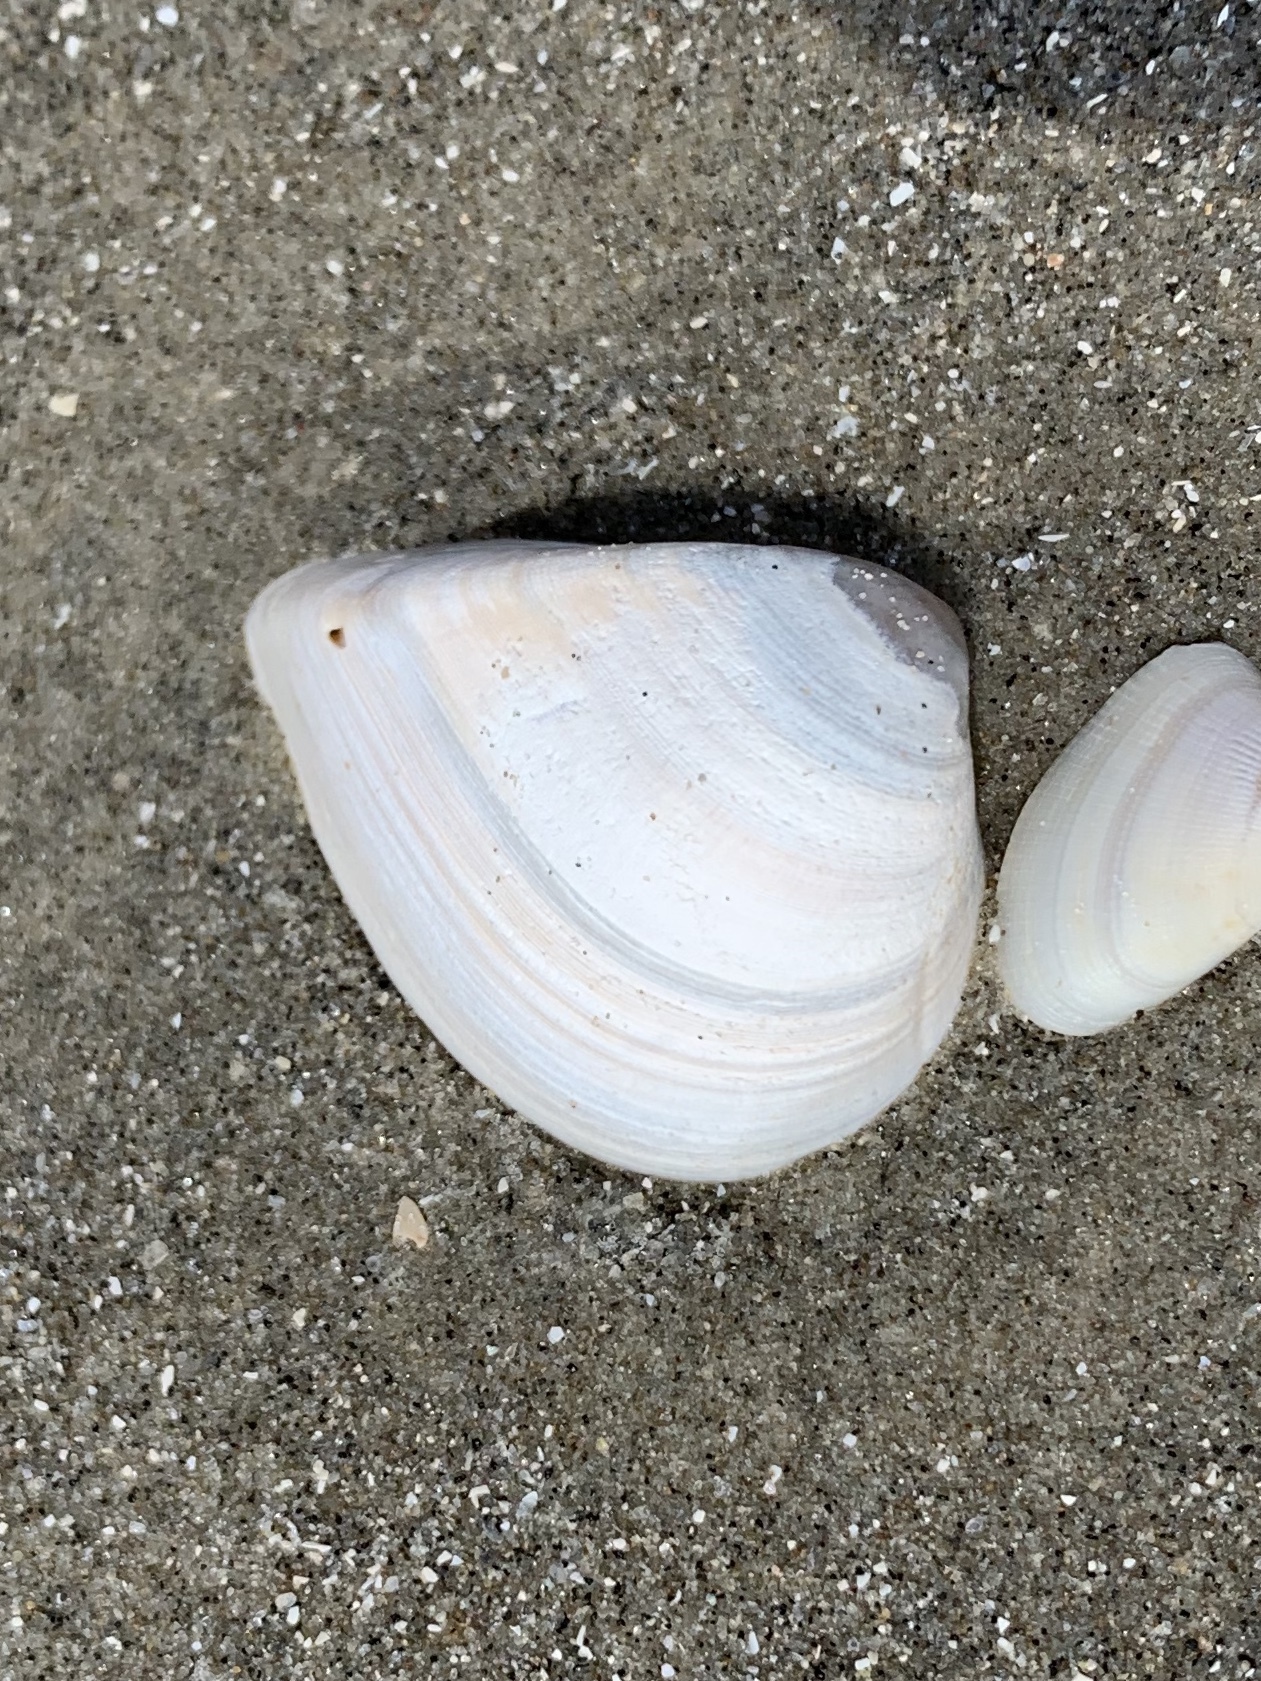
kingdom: Animalia
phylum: Mollusca
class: Bivalvia
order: Venerida
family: Mactridae
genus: Rangia
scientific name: Rangia flexuosa
